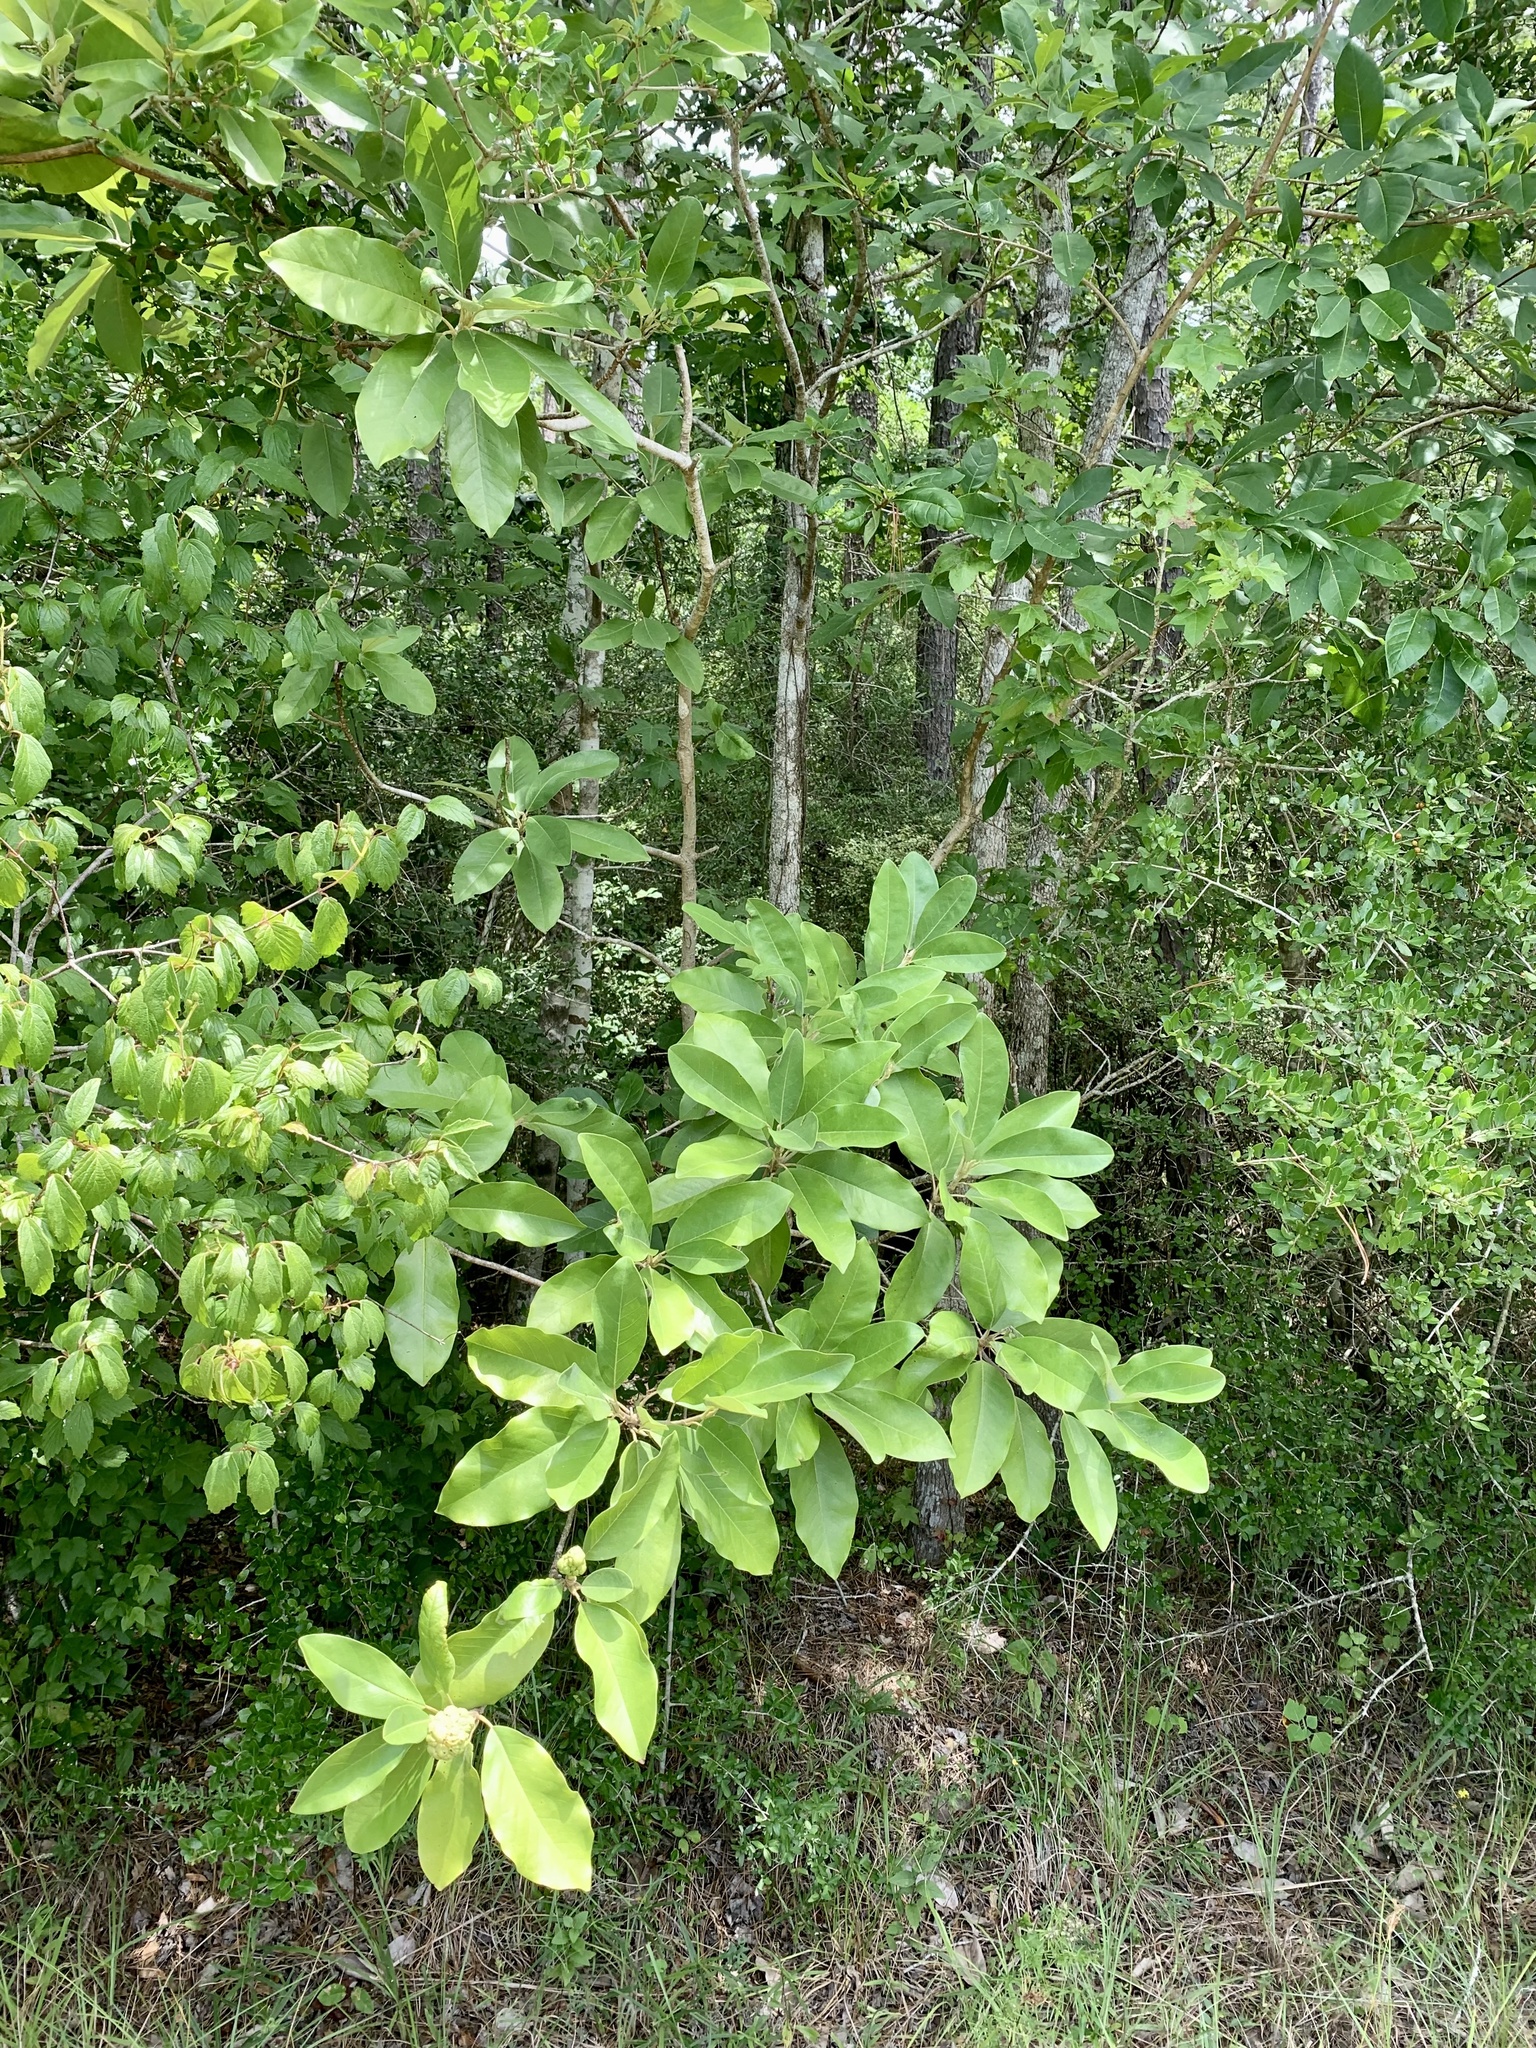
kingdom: Plantae
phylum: Tracheophyta
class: Magnoliopsida
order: Magnoliales
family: Magnoliaceae
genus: Magnolia
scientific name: Magnolia virginiana
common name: Swamp bay
